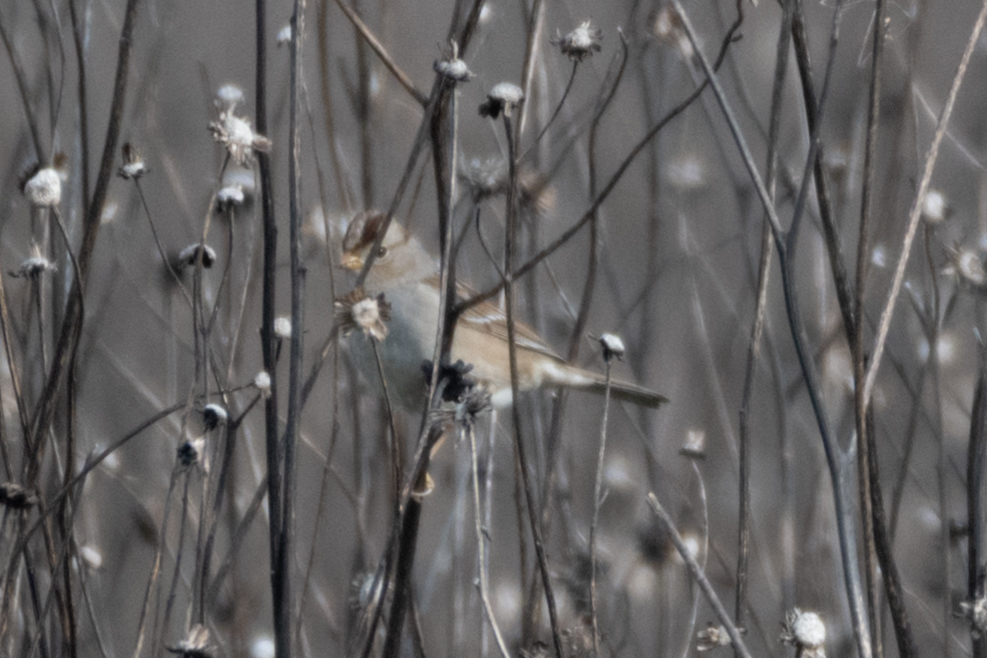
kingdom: Animalia
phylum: Chordata
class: Aves
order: Passeriformes
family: Passerellidae
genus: Zonotrichia
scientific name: Zonotrichia leucophrys
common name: White-crowned sparrow
